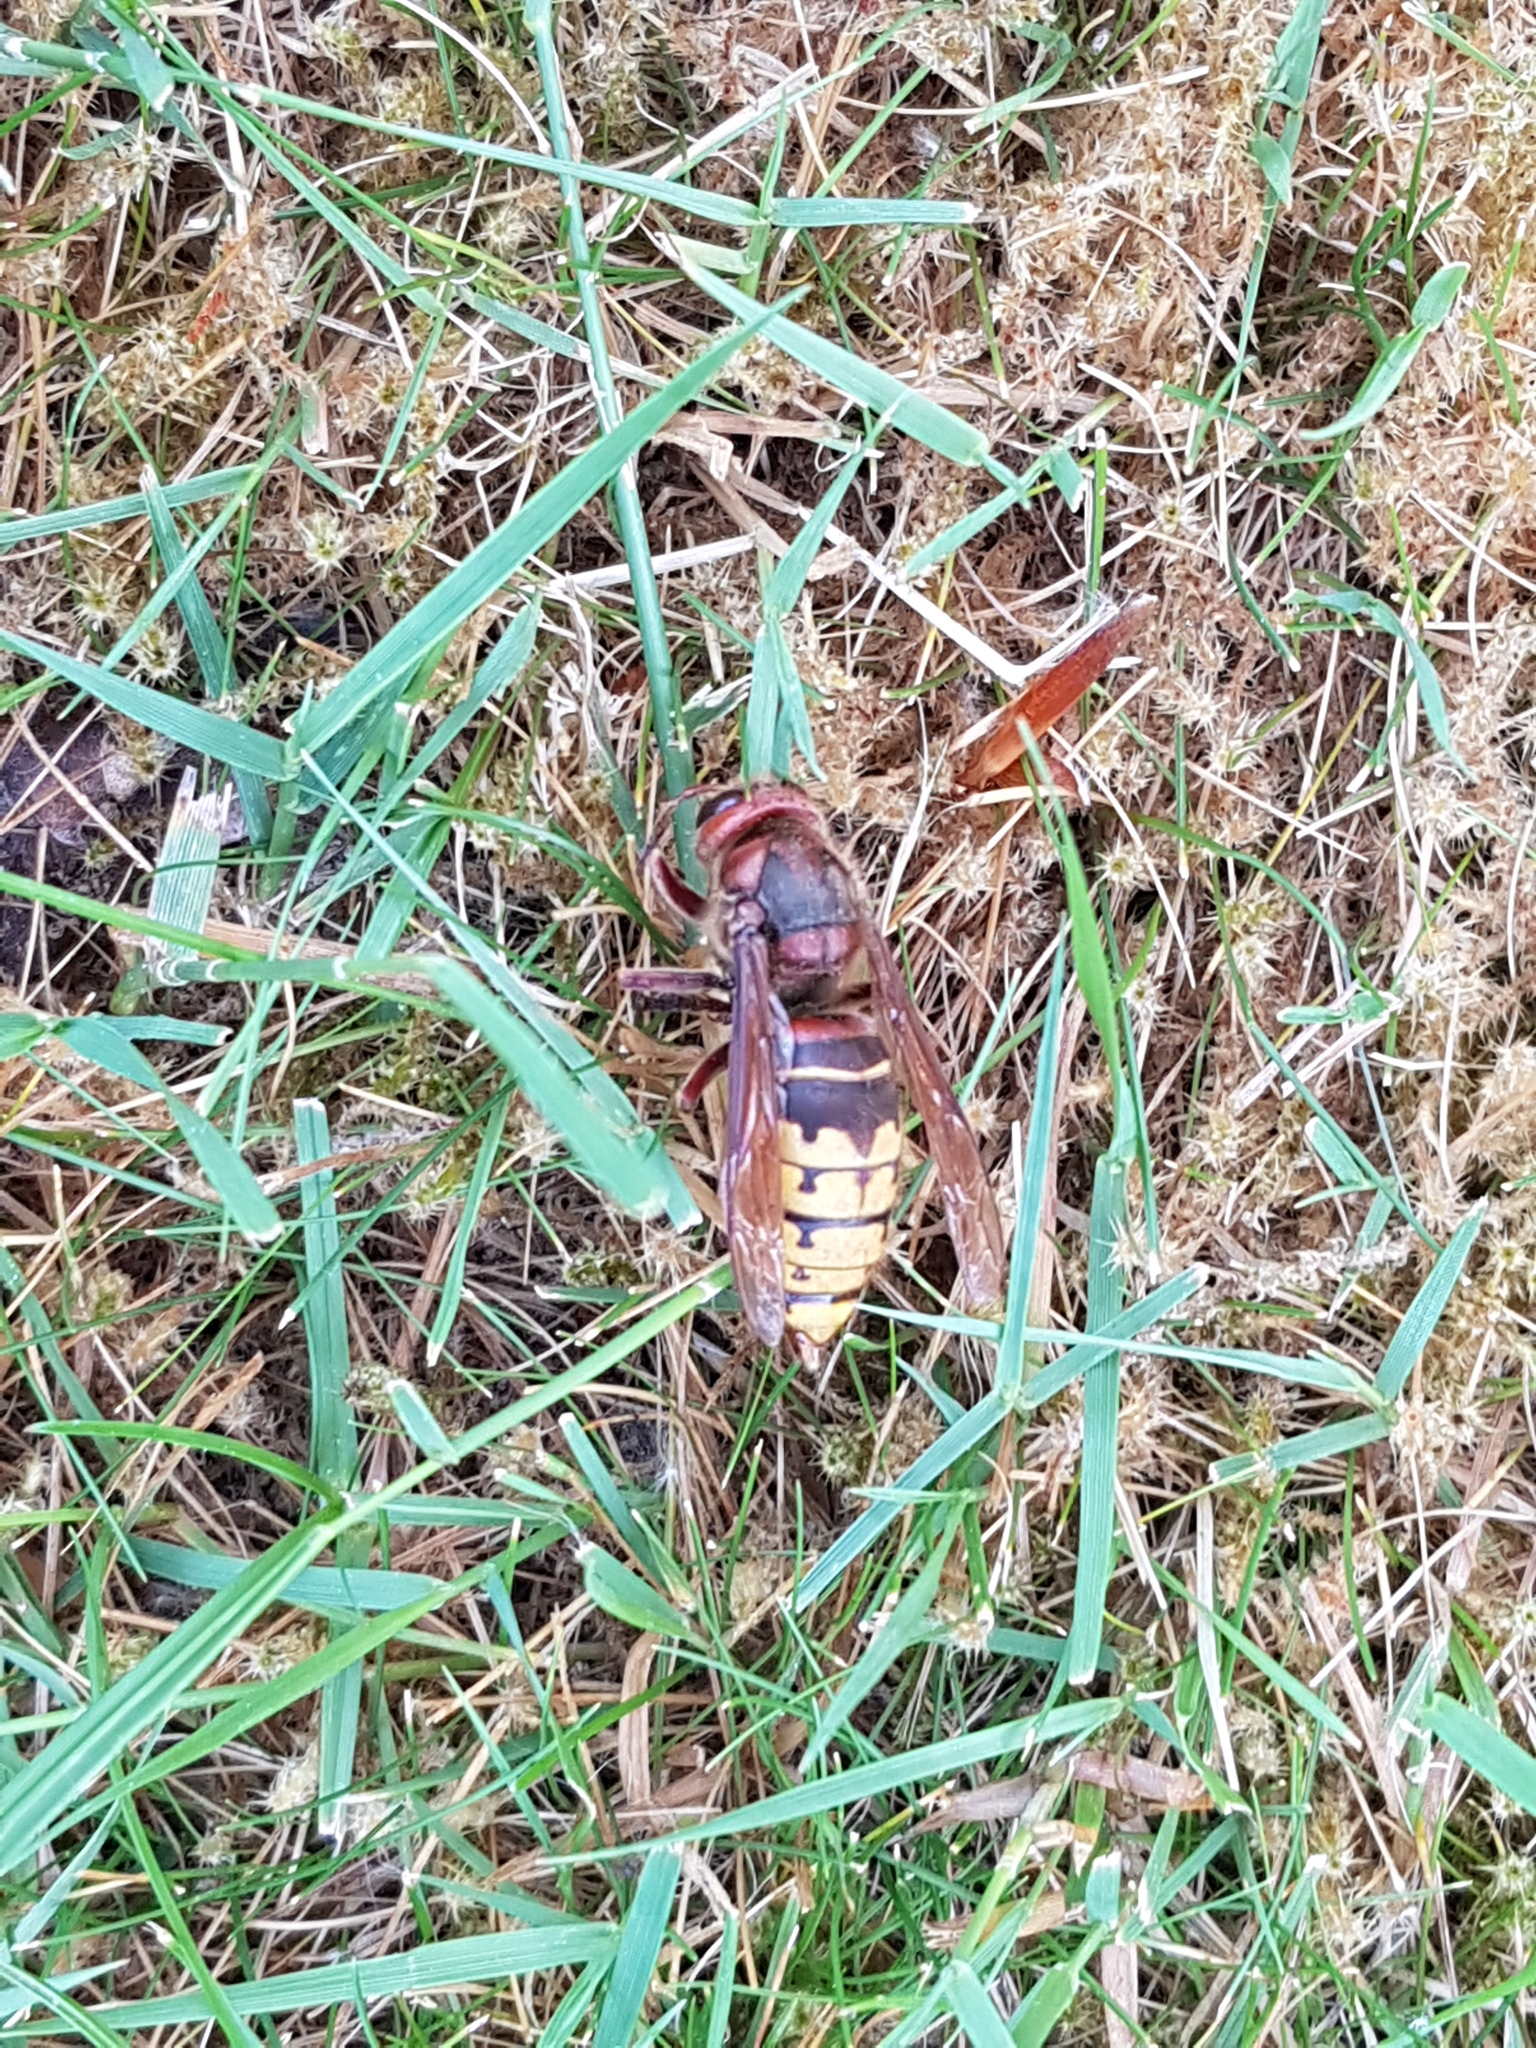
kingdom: Animalia
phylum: Arthropoda
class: Insecta
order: Hymenoptera
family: Vespidae
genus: Vespa
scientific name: Vespa crabro
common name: Hornet
